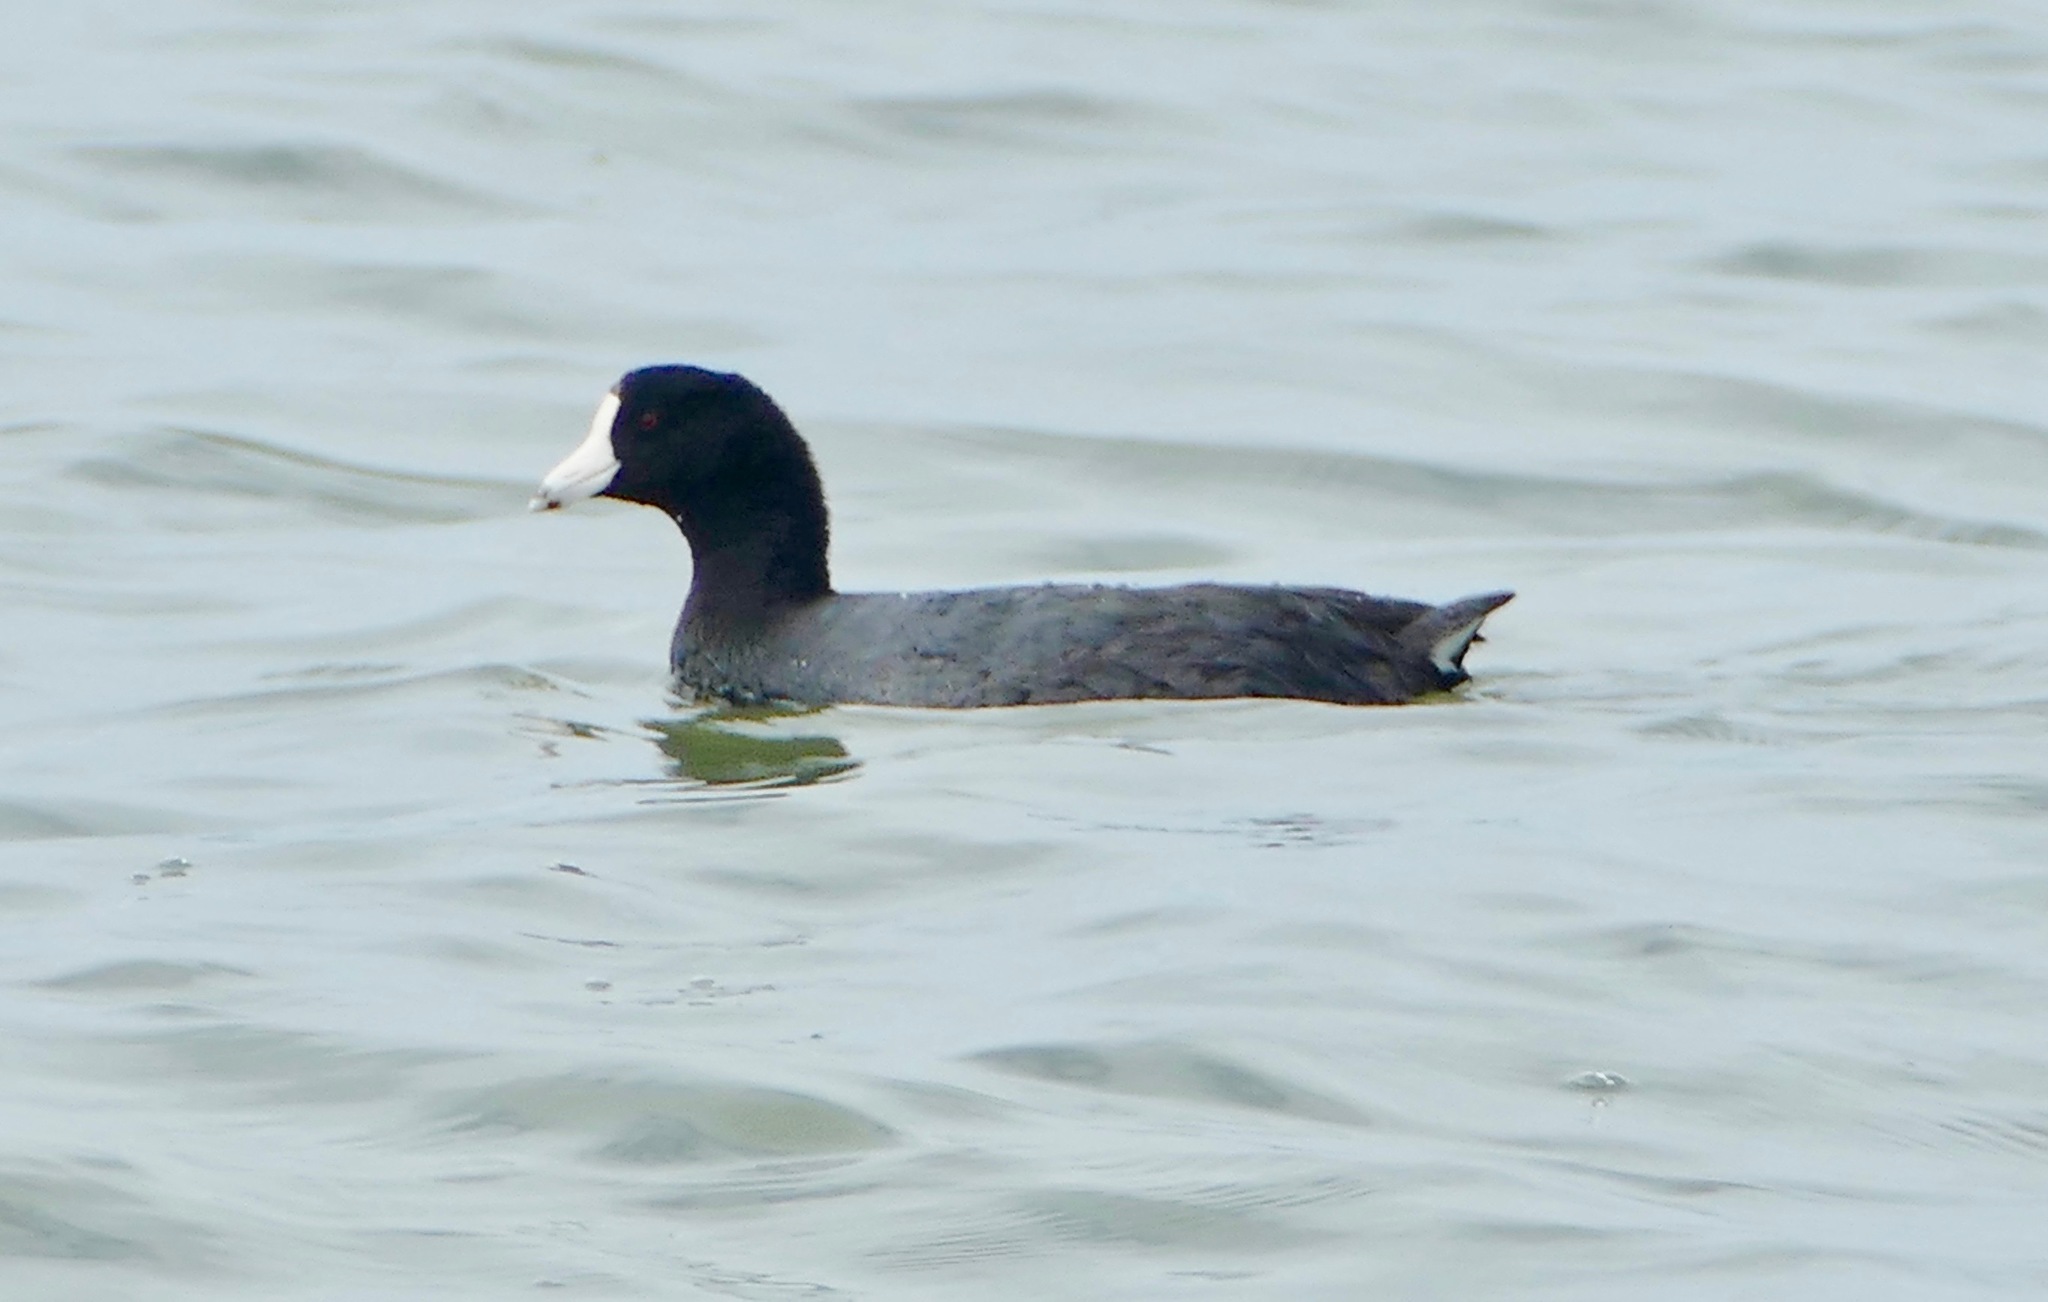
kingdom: Animalia
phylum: Chordata
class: Aves
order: Gruiformes
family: Rallidae
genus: Fulica
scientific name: Fulica americana
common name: American coot
